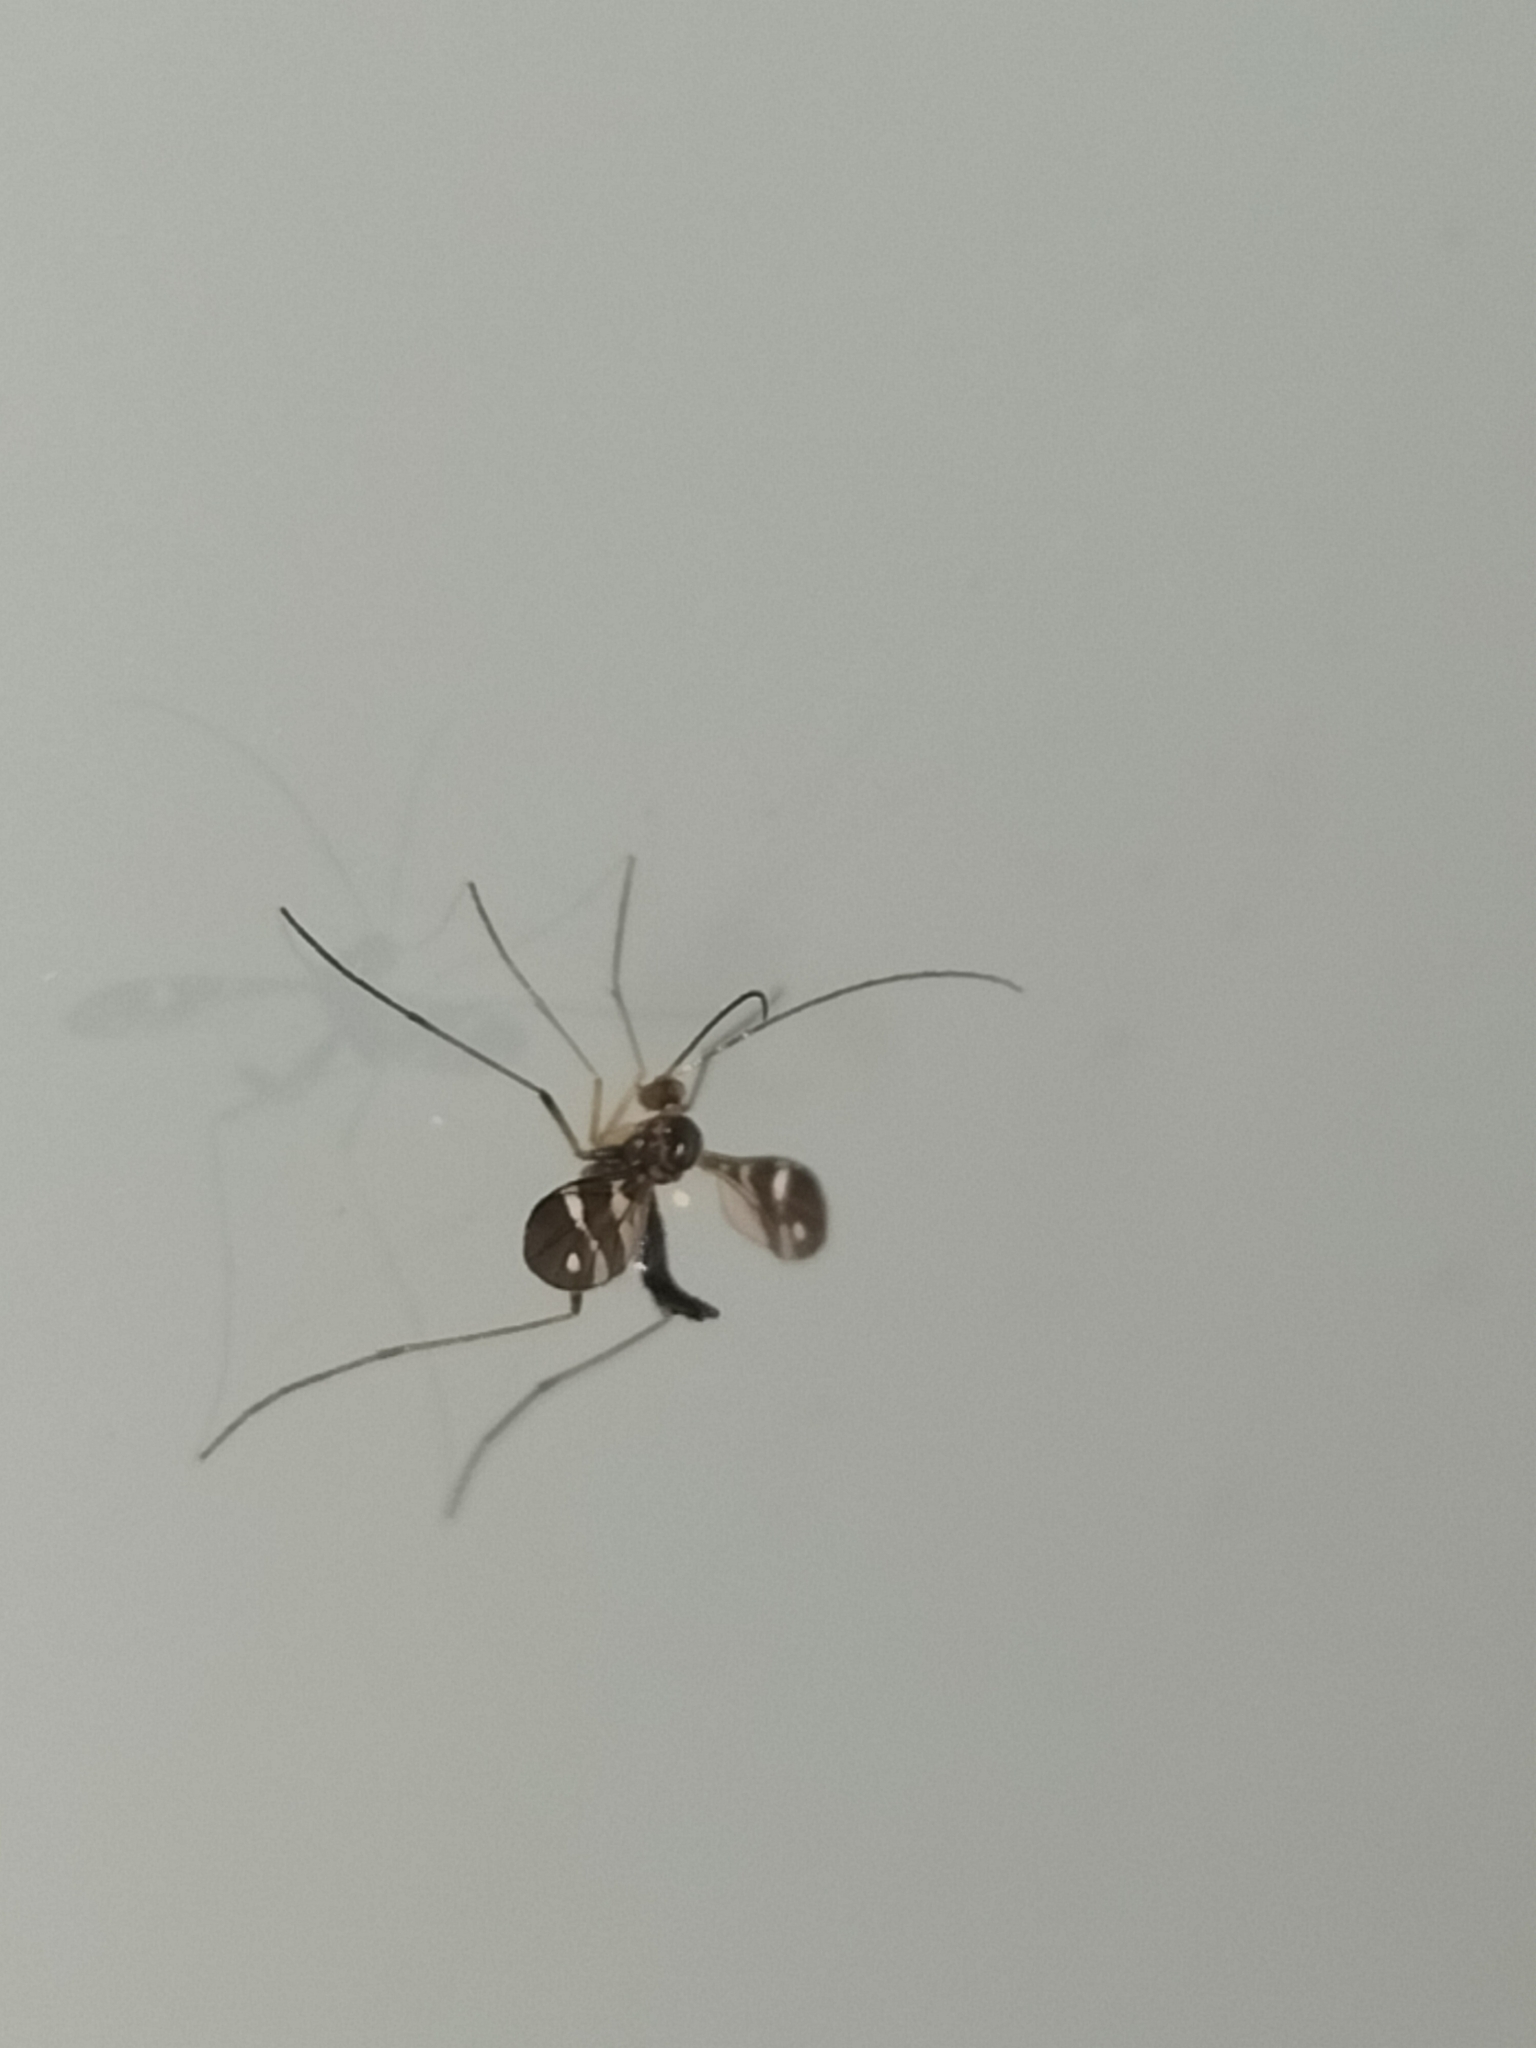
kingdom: Animalia
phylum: Arthropoda
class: Insecta
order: Diptera
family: Keroplatidae
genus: Chiasmoneura
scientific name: Chiasmoneura concinna
